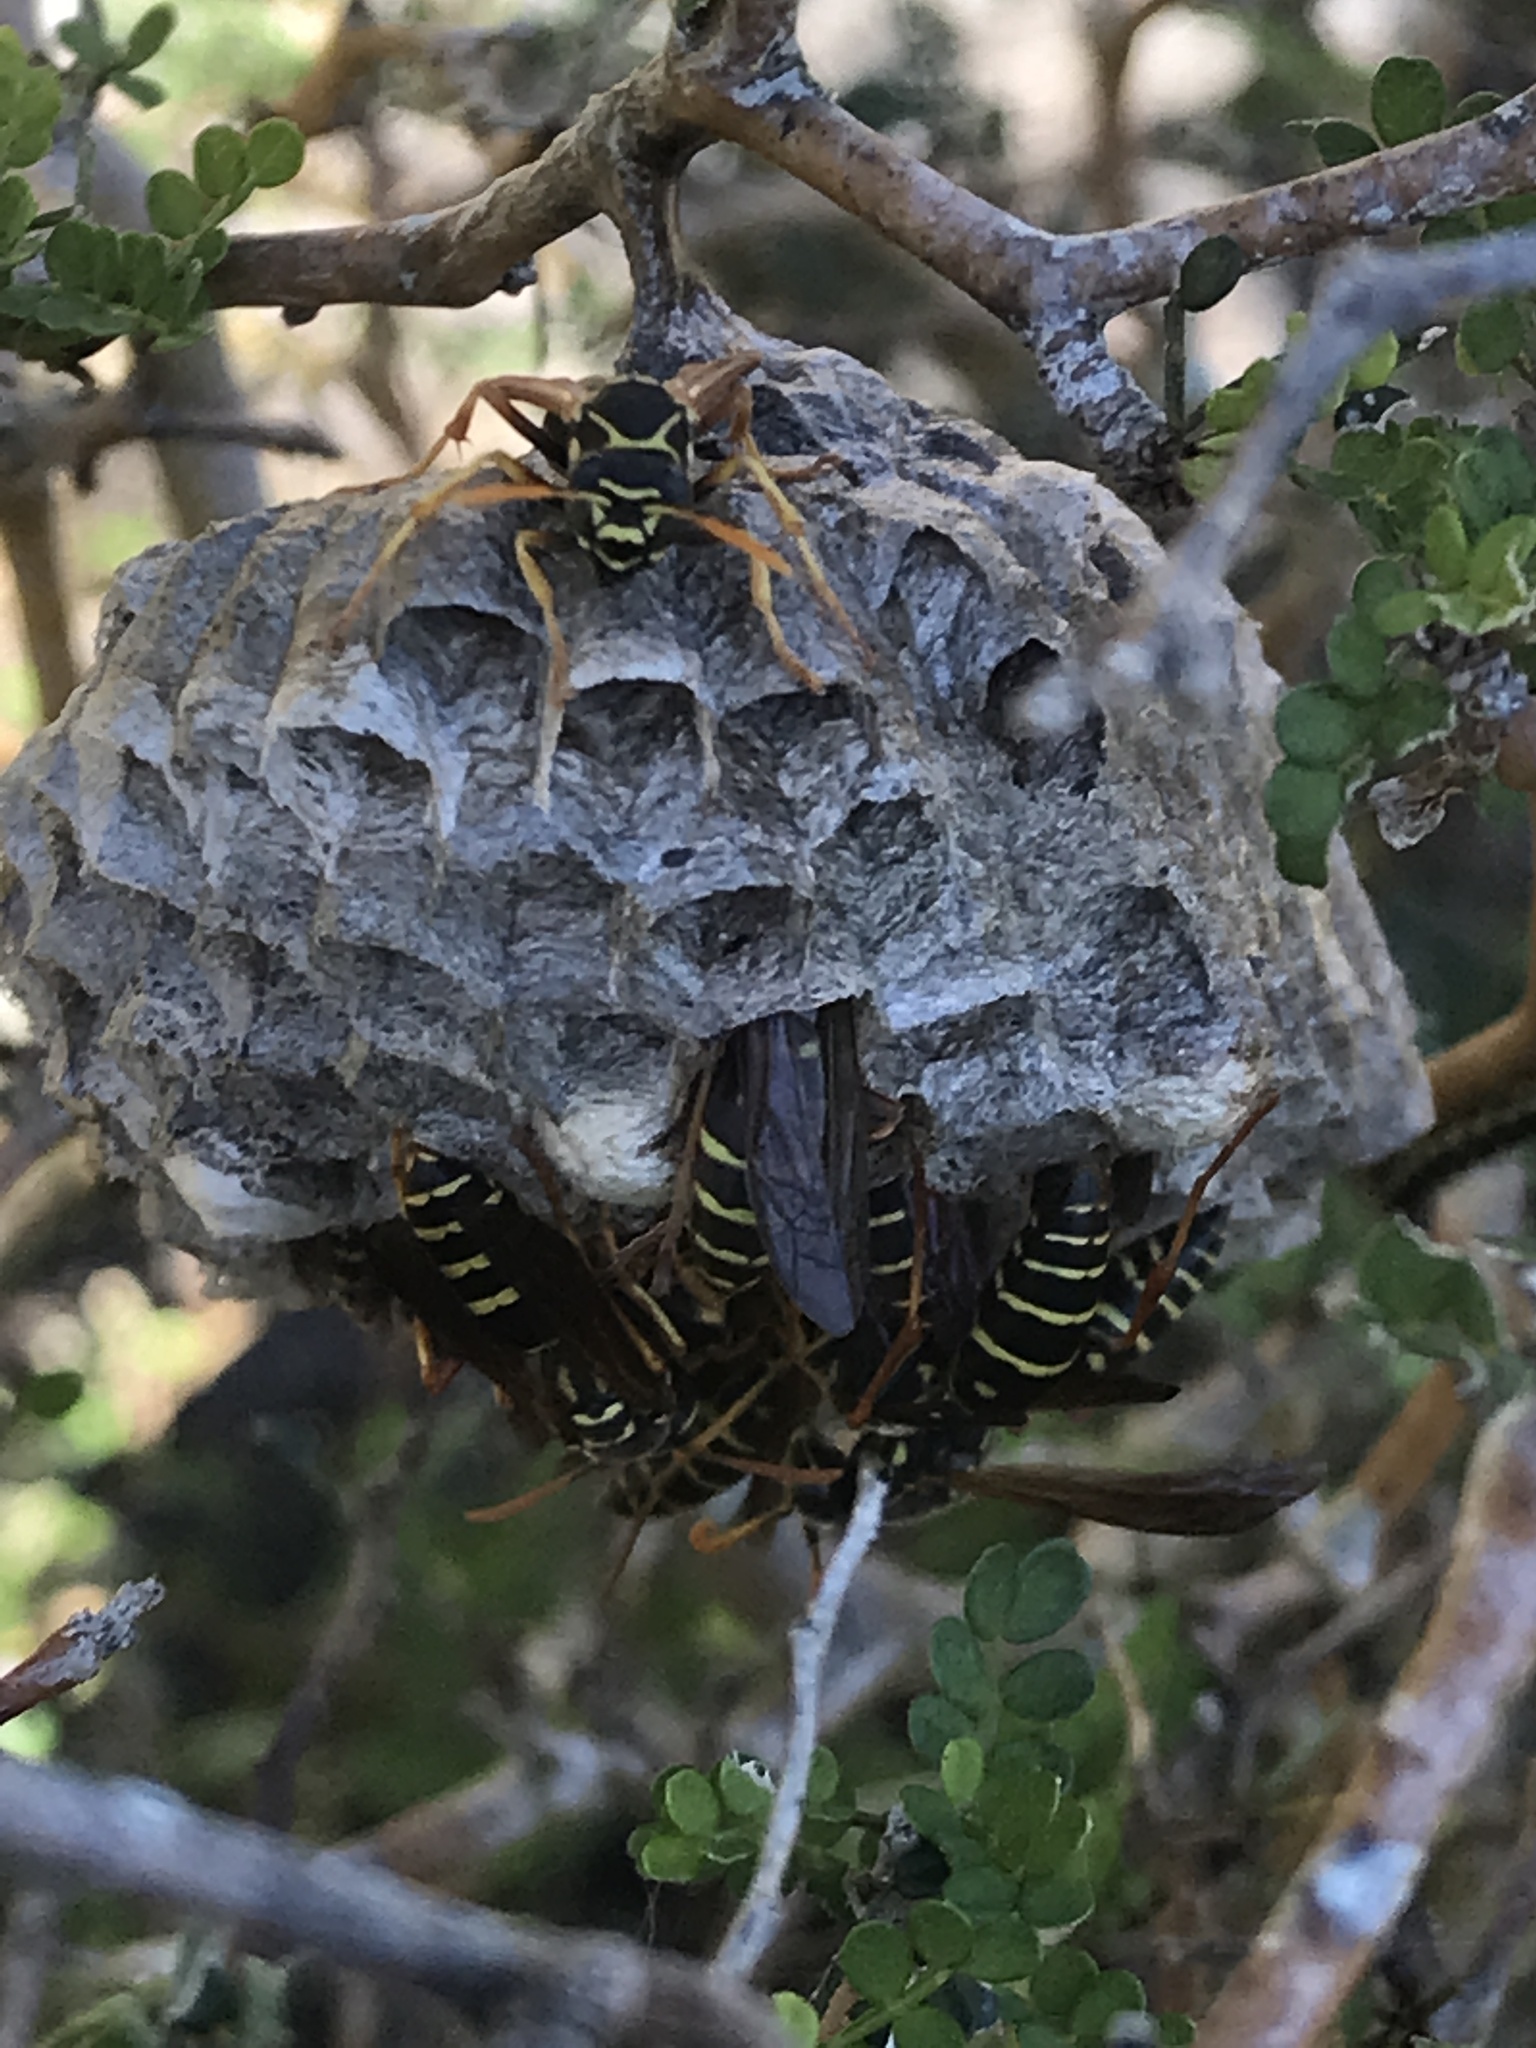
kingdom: Animalia
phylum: Arthropoda
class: Insecta
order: Hymenoptera
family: Eumenidae
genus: Polistes
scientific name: Polistes chinensis
